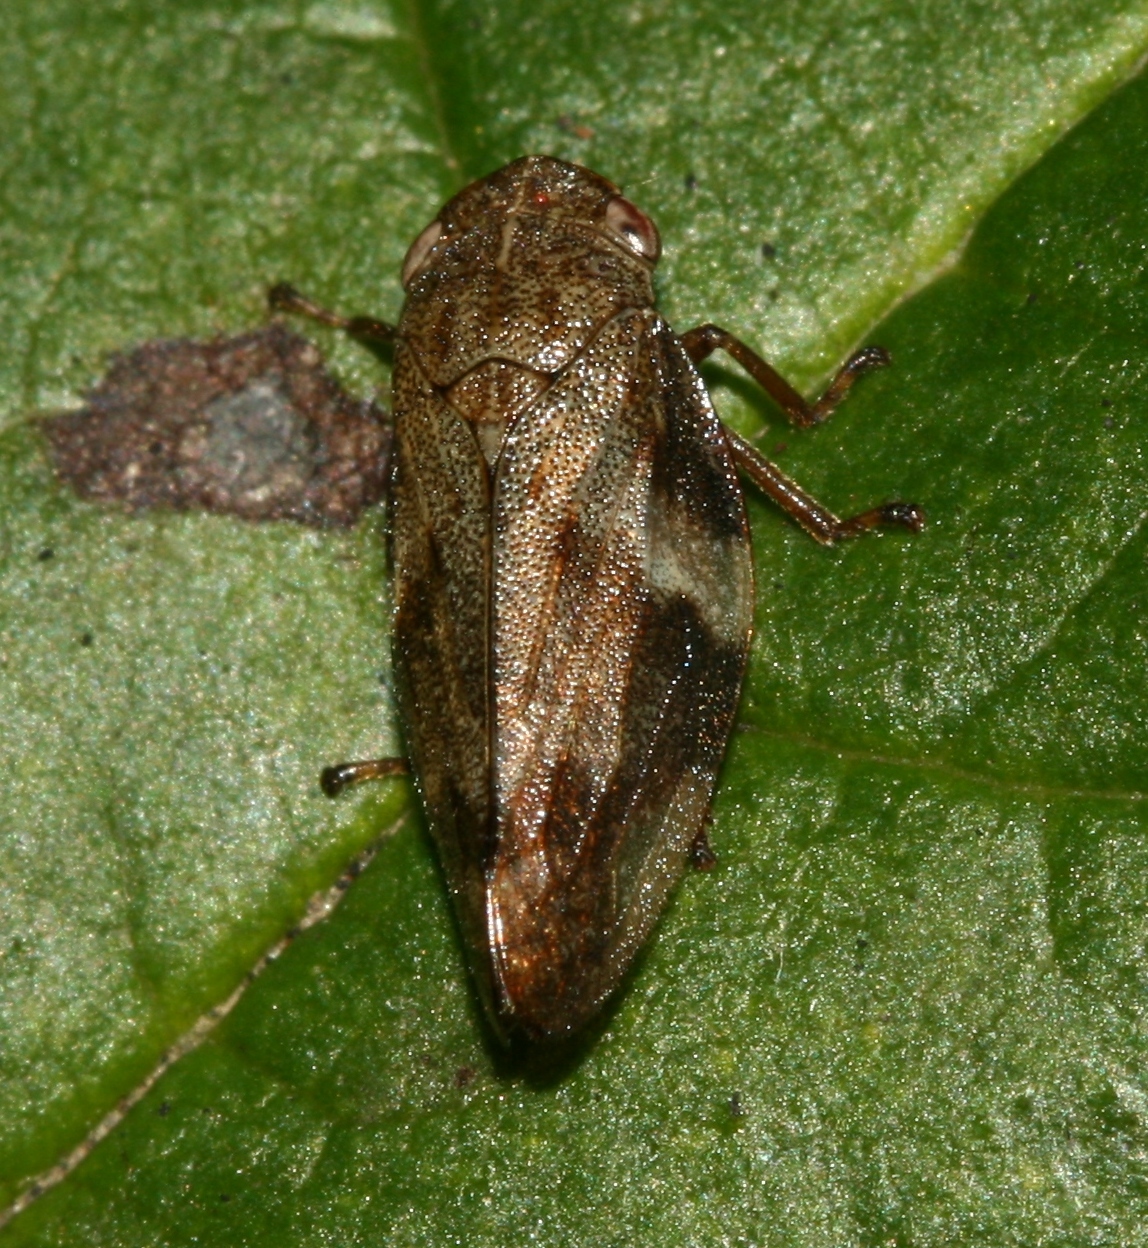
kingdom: Animalia
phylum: Arthropoda
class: Insecta
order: Hemiptera
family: Aphrophoridae
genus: Aphrophora
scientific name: Aphrophora alni
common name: European alder spittlebug
